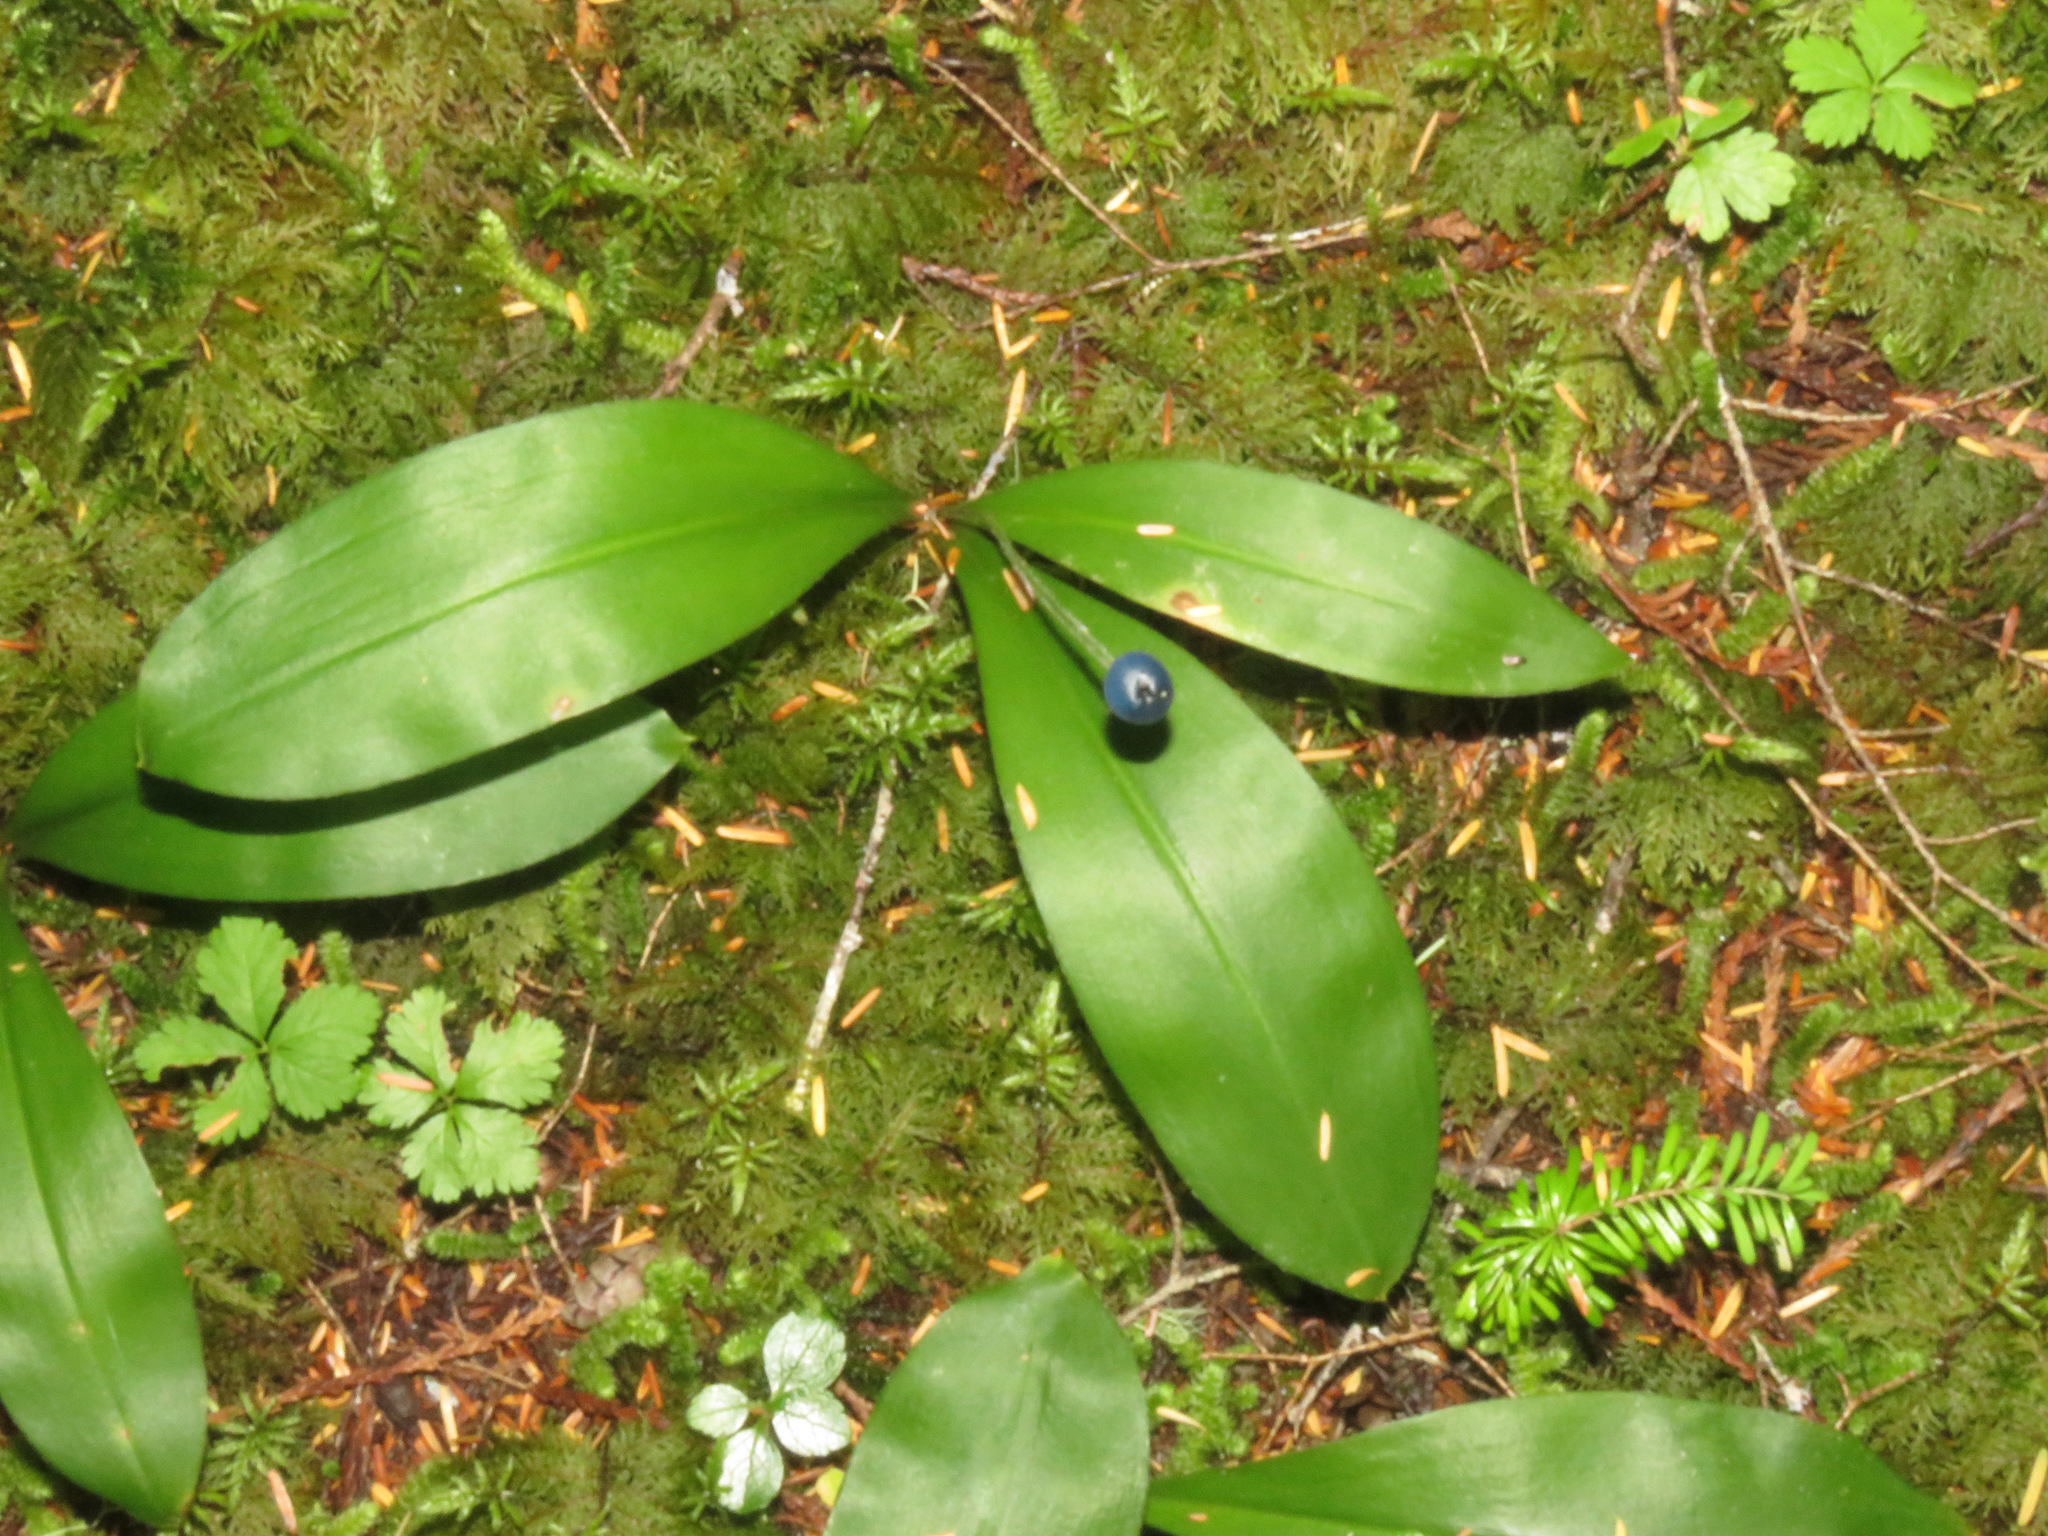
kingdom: Plantae
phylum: Tracheophyta
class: Liliopsida
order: Liliales
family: Liliaceae
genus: Clintonia
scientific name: Clintonia uniflora
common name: Queen's cup
